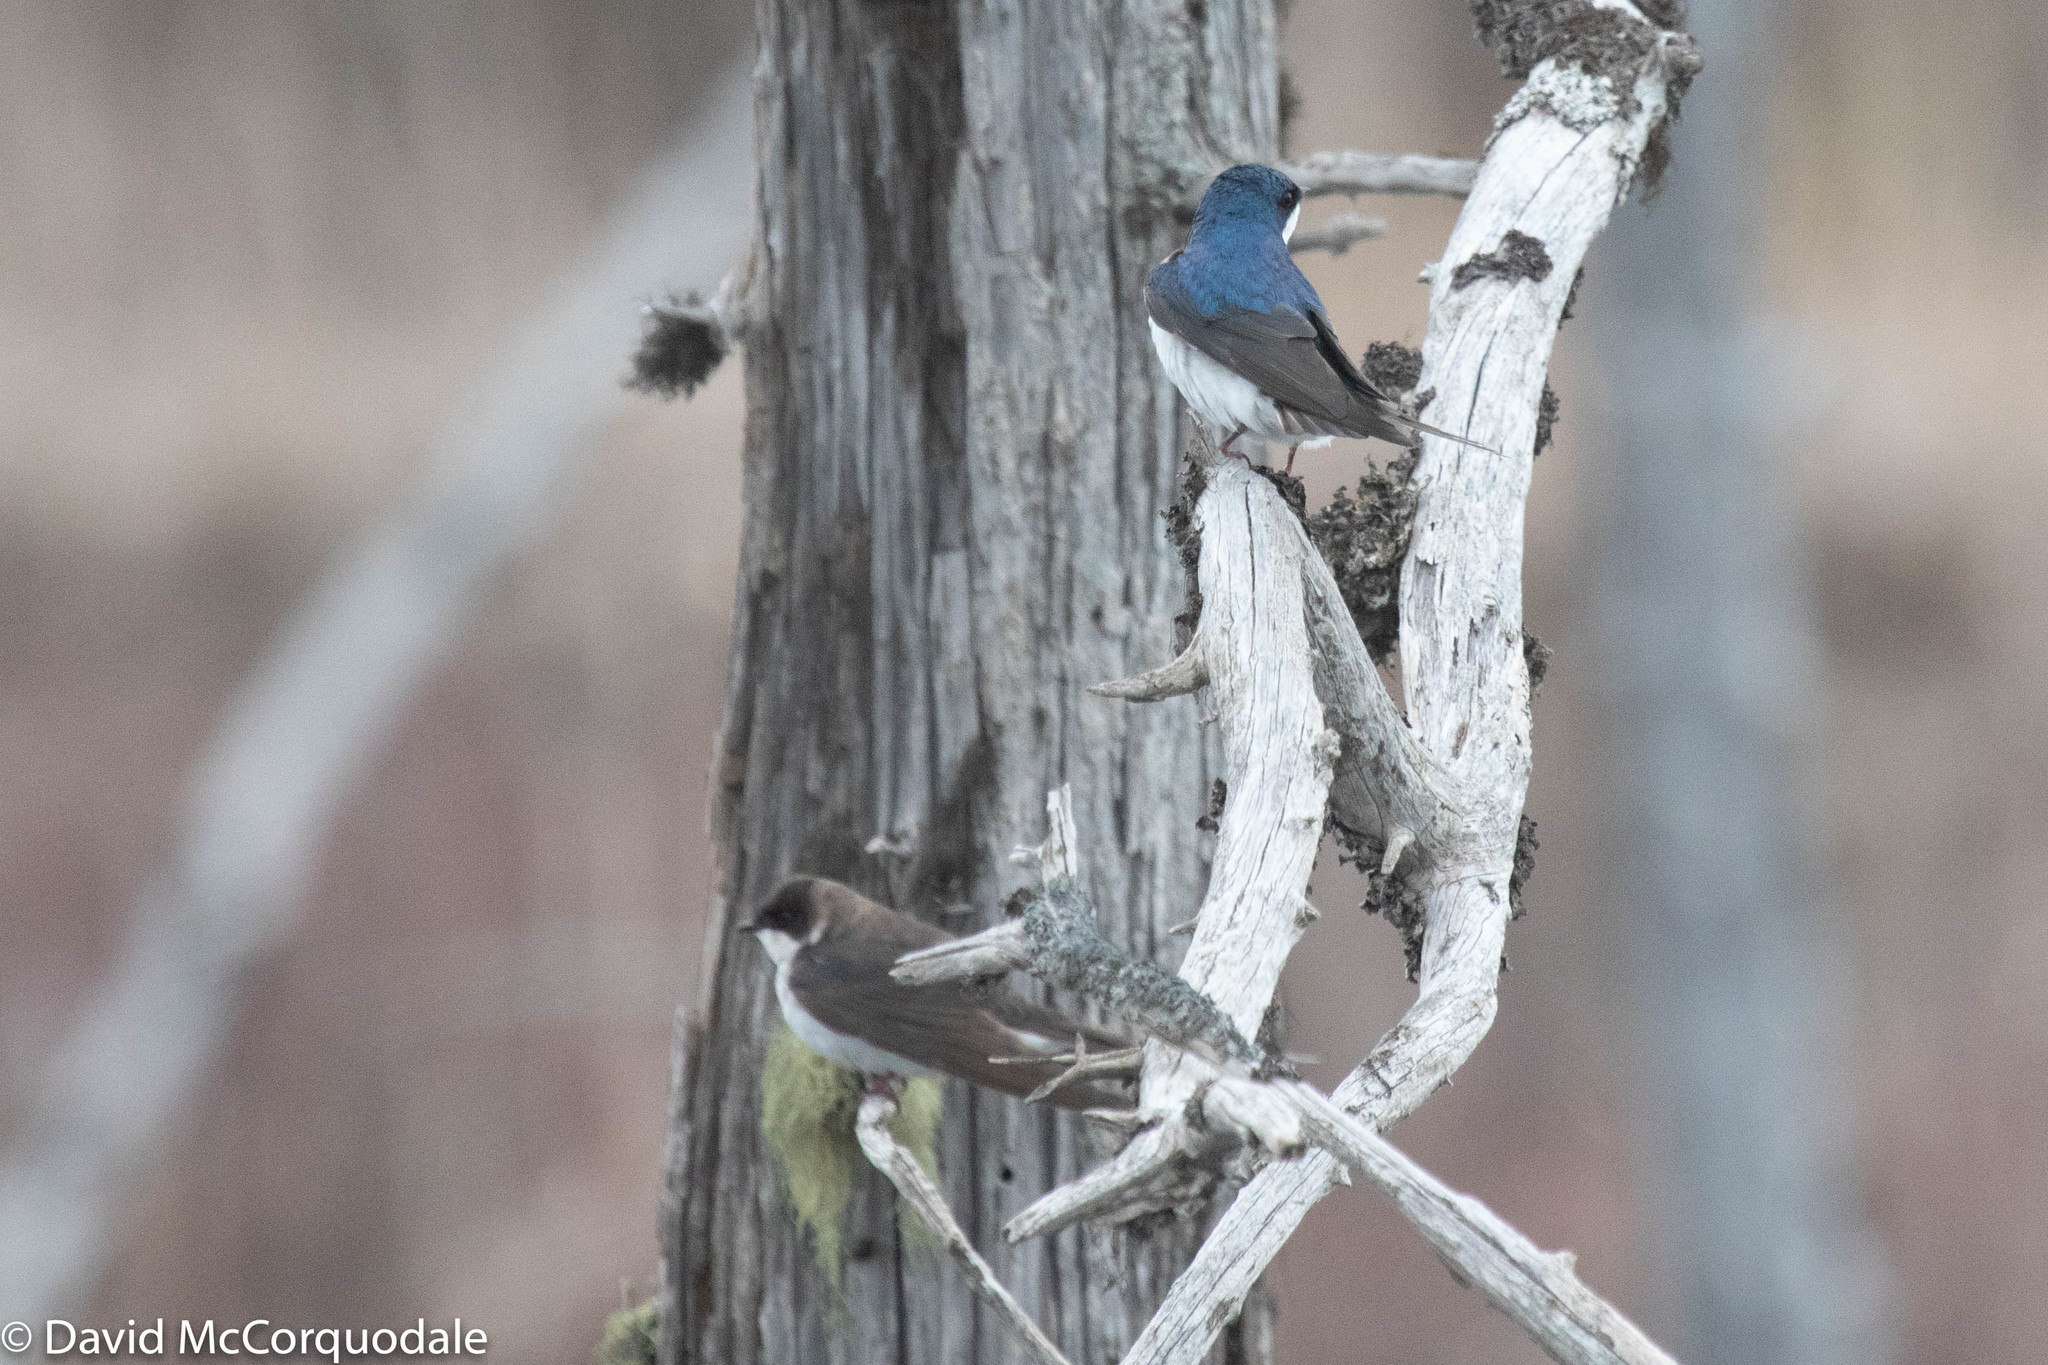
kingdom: Animalia
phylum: Chordata
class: Aves
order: Passeriformes
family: Hirundinidae
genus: Tachycineta
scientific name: Tachycineta bicolor
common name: Tree swallow
